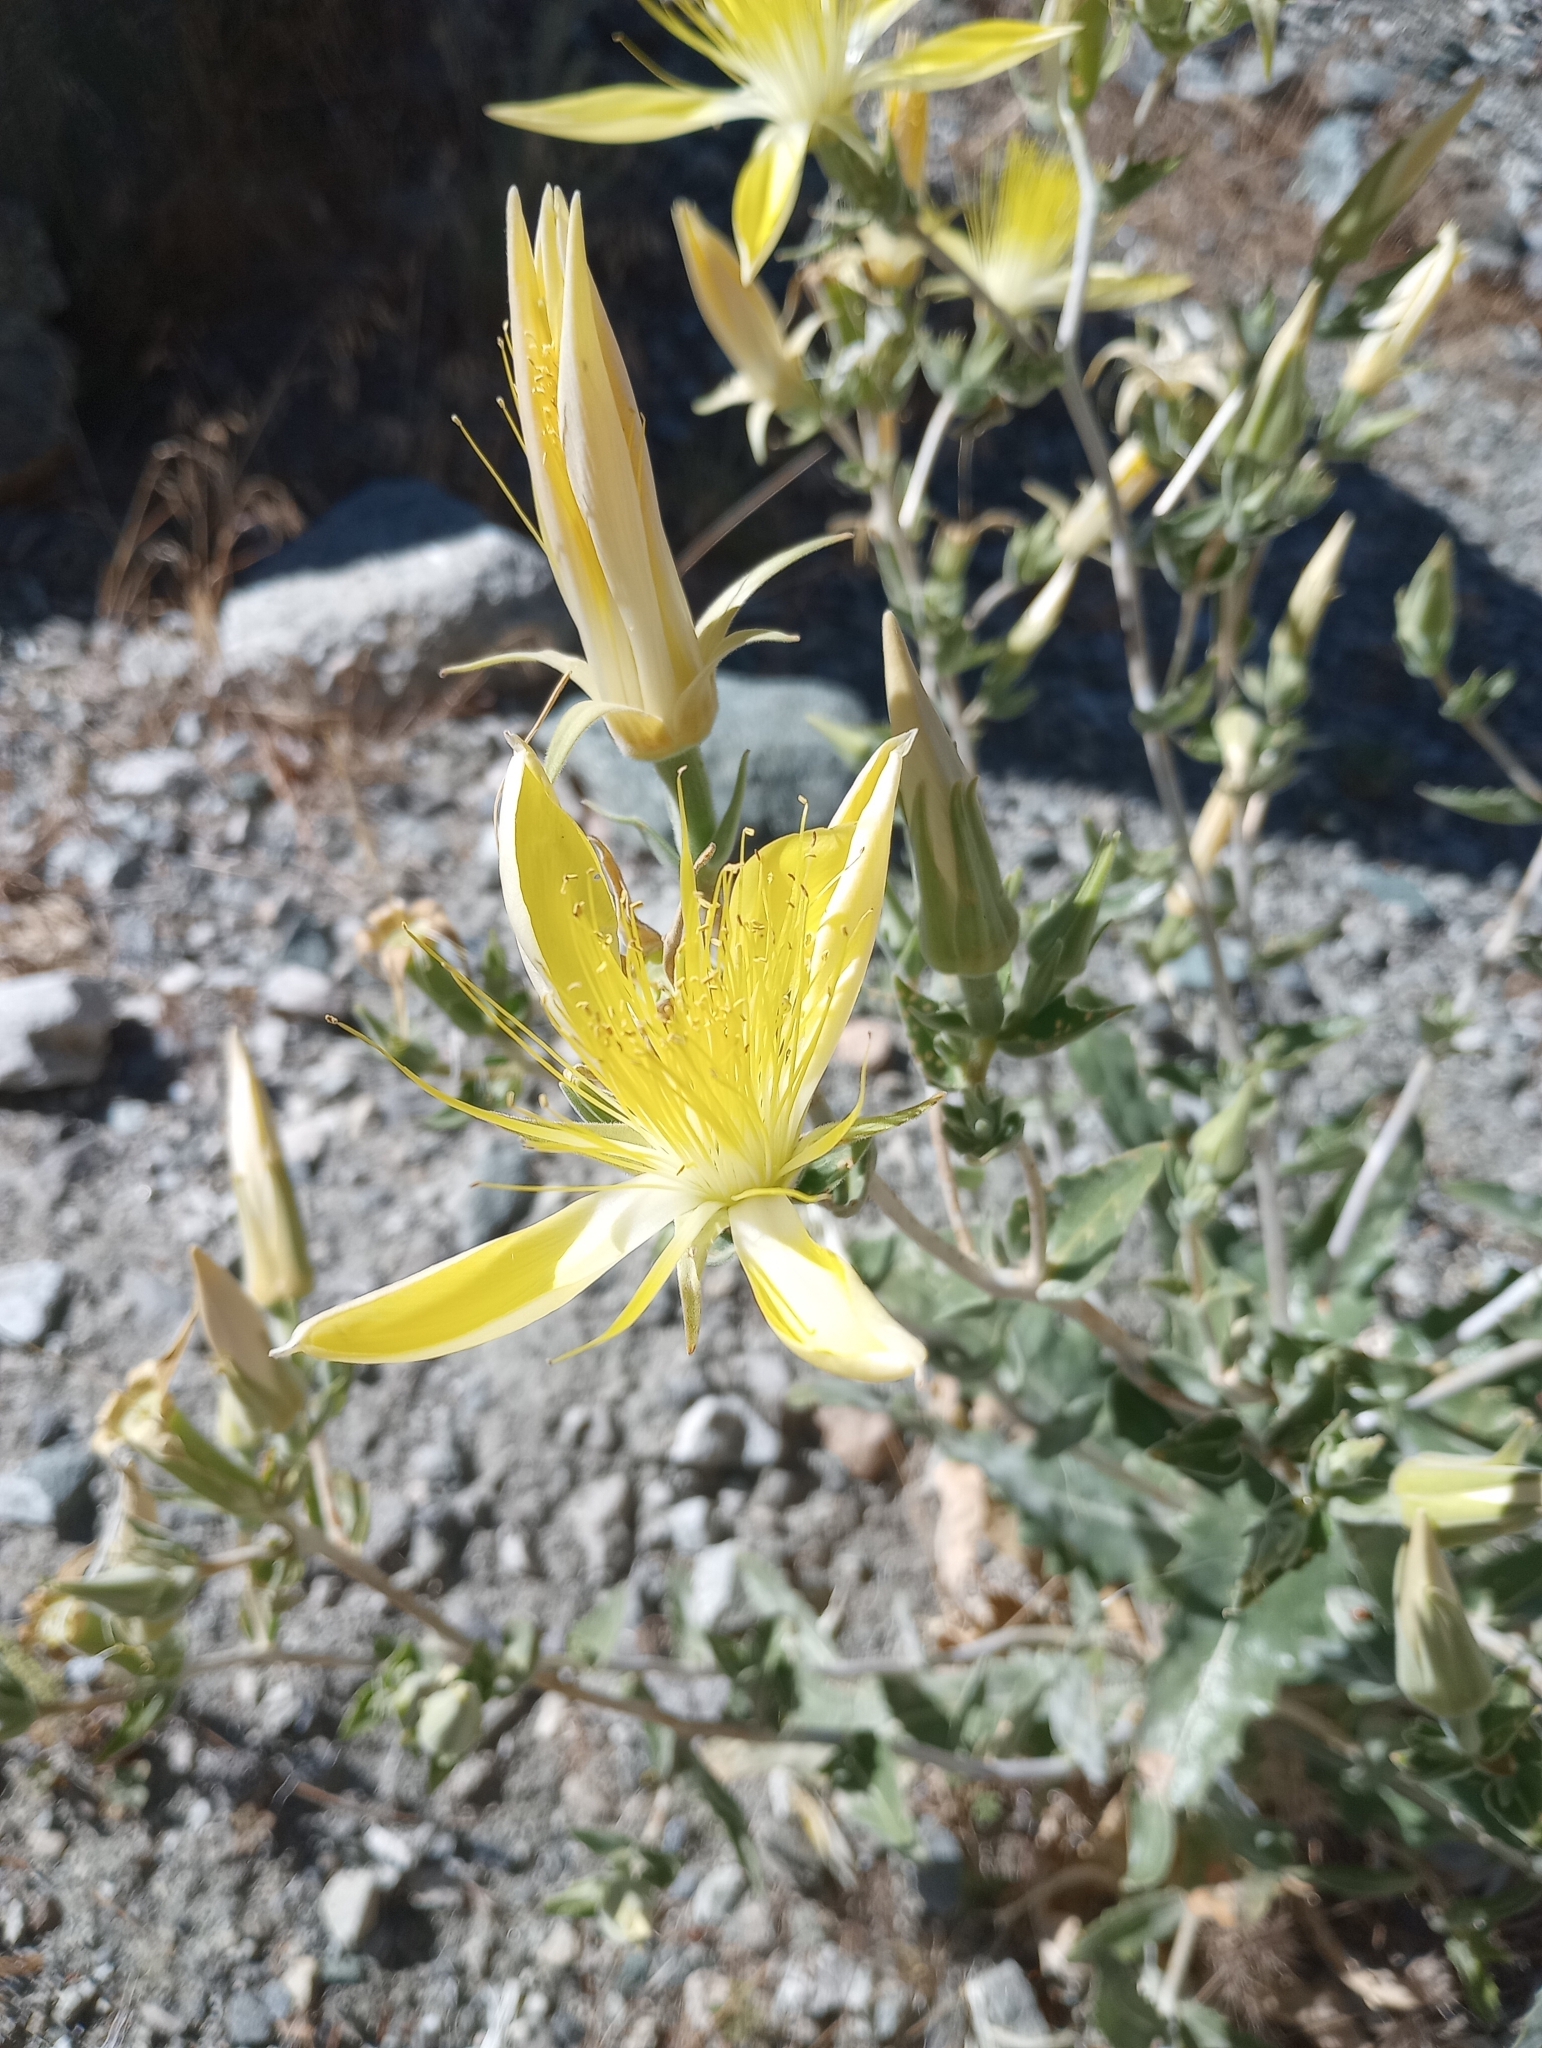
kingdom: Plantae
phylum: Tracheophyta
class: Magnoliopsida
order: Cornales
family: Loasaceae
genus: Mentzelia
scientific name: Mentzelia laevicaulis
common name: Smooth-stem blazingstar
